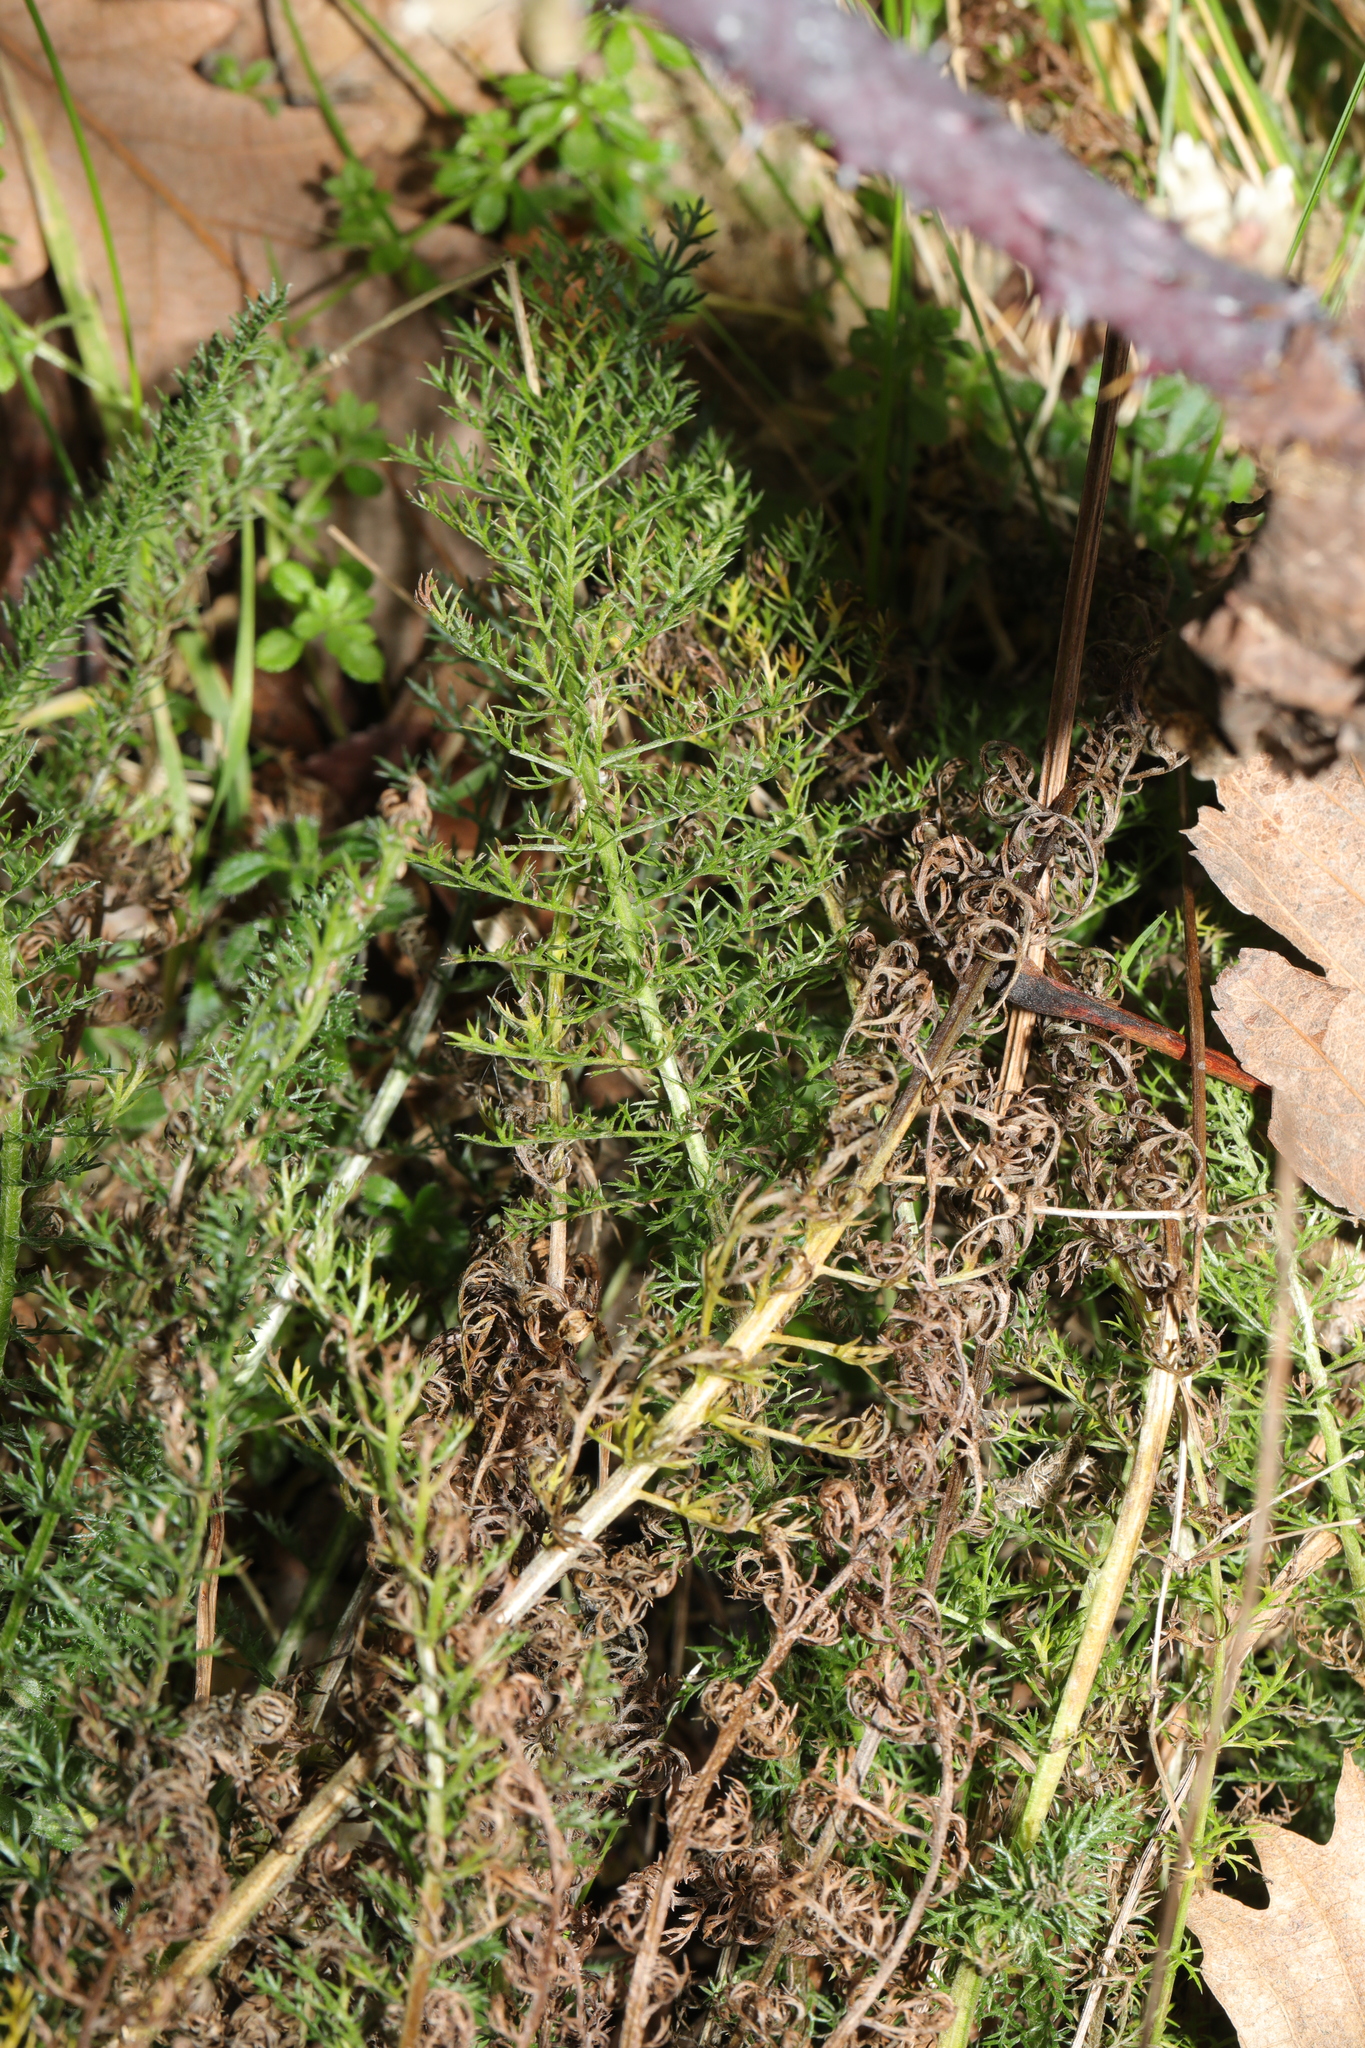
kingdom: Plantae
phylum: Tracheophyta
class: Magnoliopsida
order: Asterales
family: Asteraceae
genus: Achillea
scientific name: Achillea millefolium
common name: Yarrow
